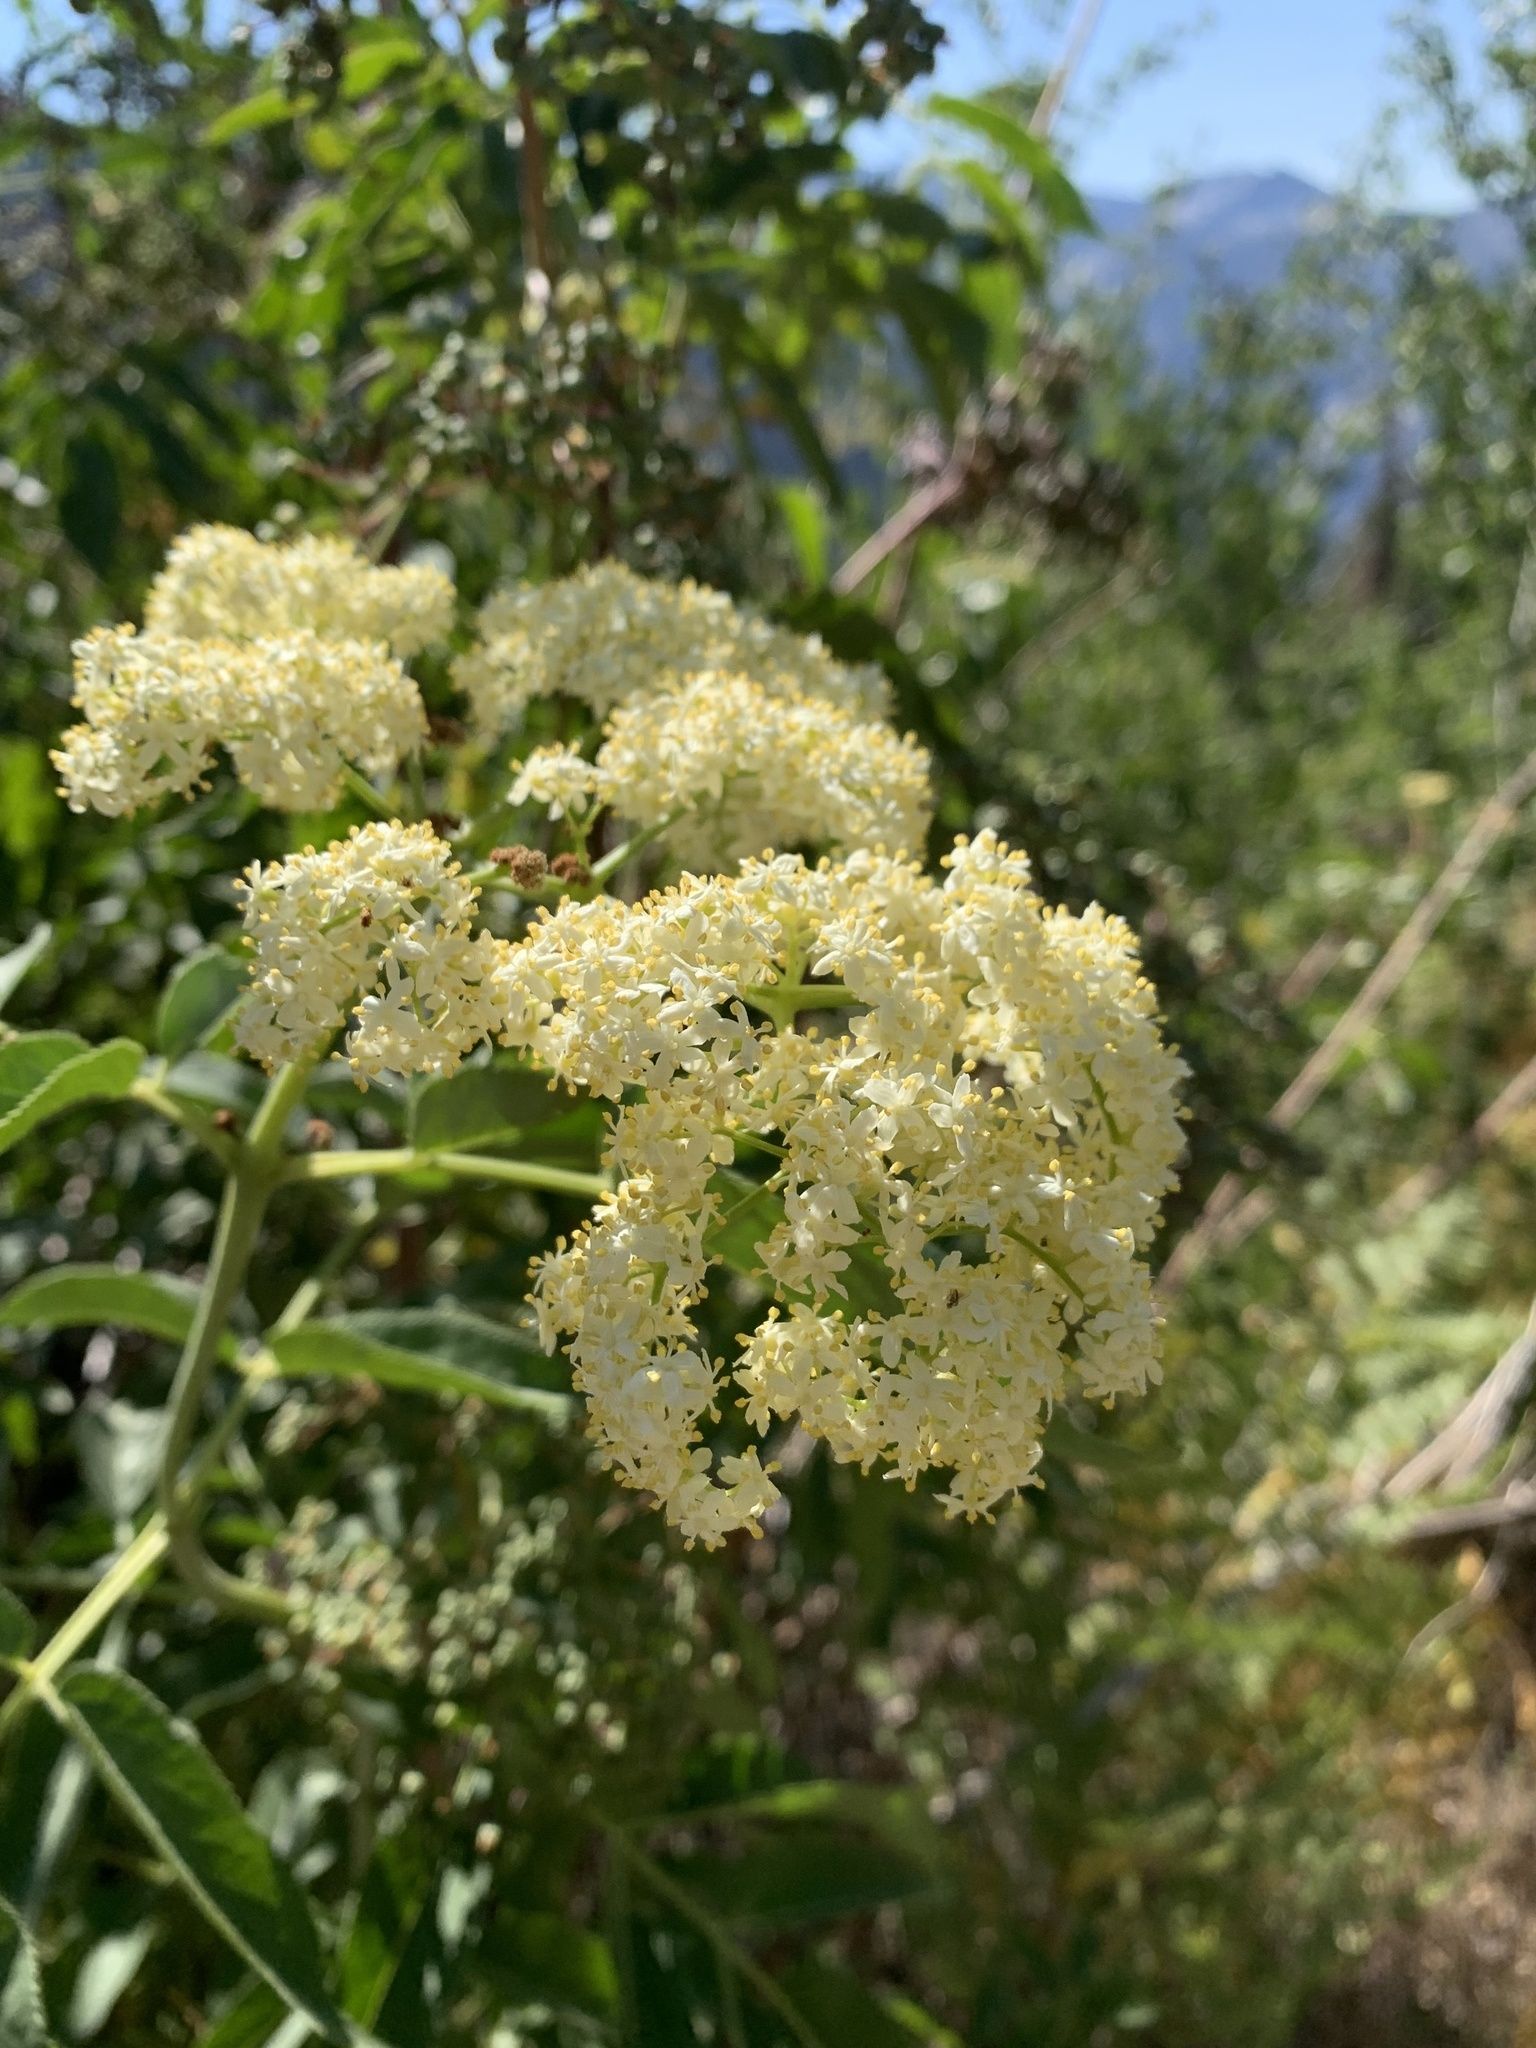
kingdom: Plantae
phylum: Tracheophyta
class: Magnoliopsida
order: Dipsacales
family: Viburnaceae
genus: Sambucus
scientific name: Sambucus cerulea
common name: Blue elder
